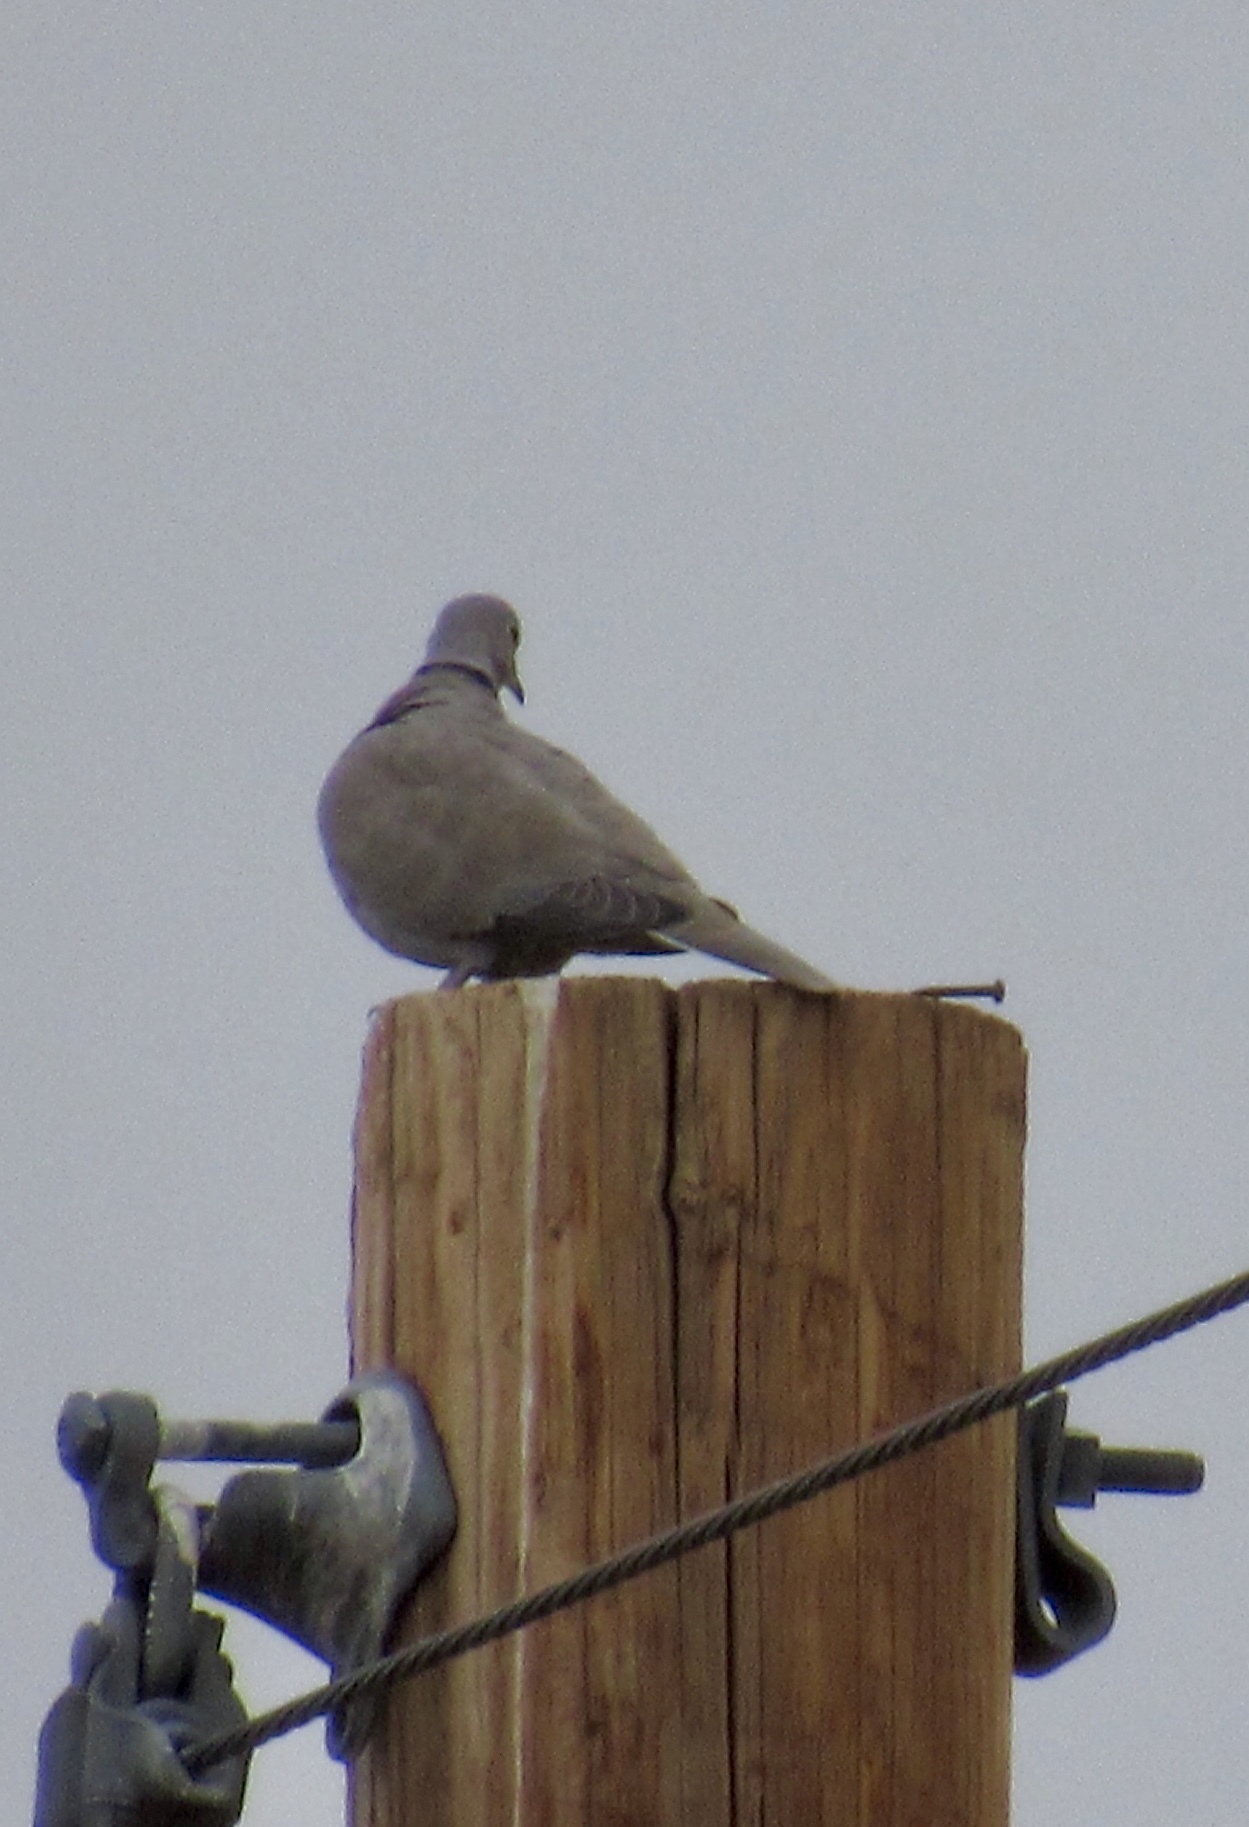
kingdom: Animalia
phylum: Chordata
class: Aves
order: Columbiformes
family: Columbidae
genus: Streptopelia
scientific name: Streptopelia decaocto
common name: Eurasian collared dove
